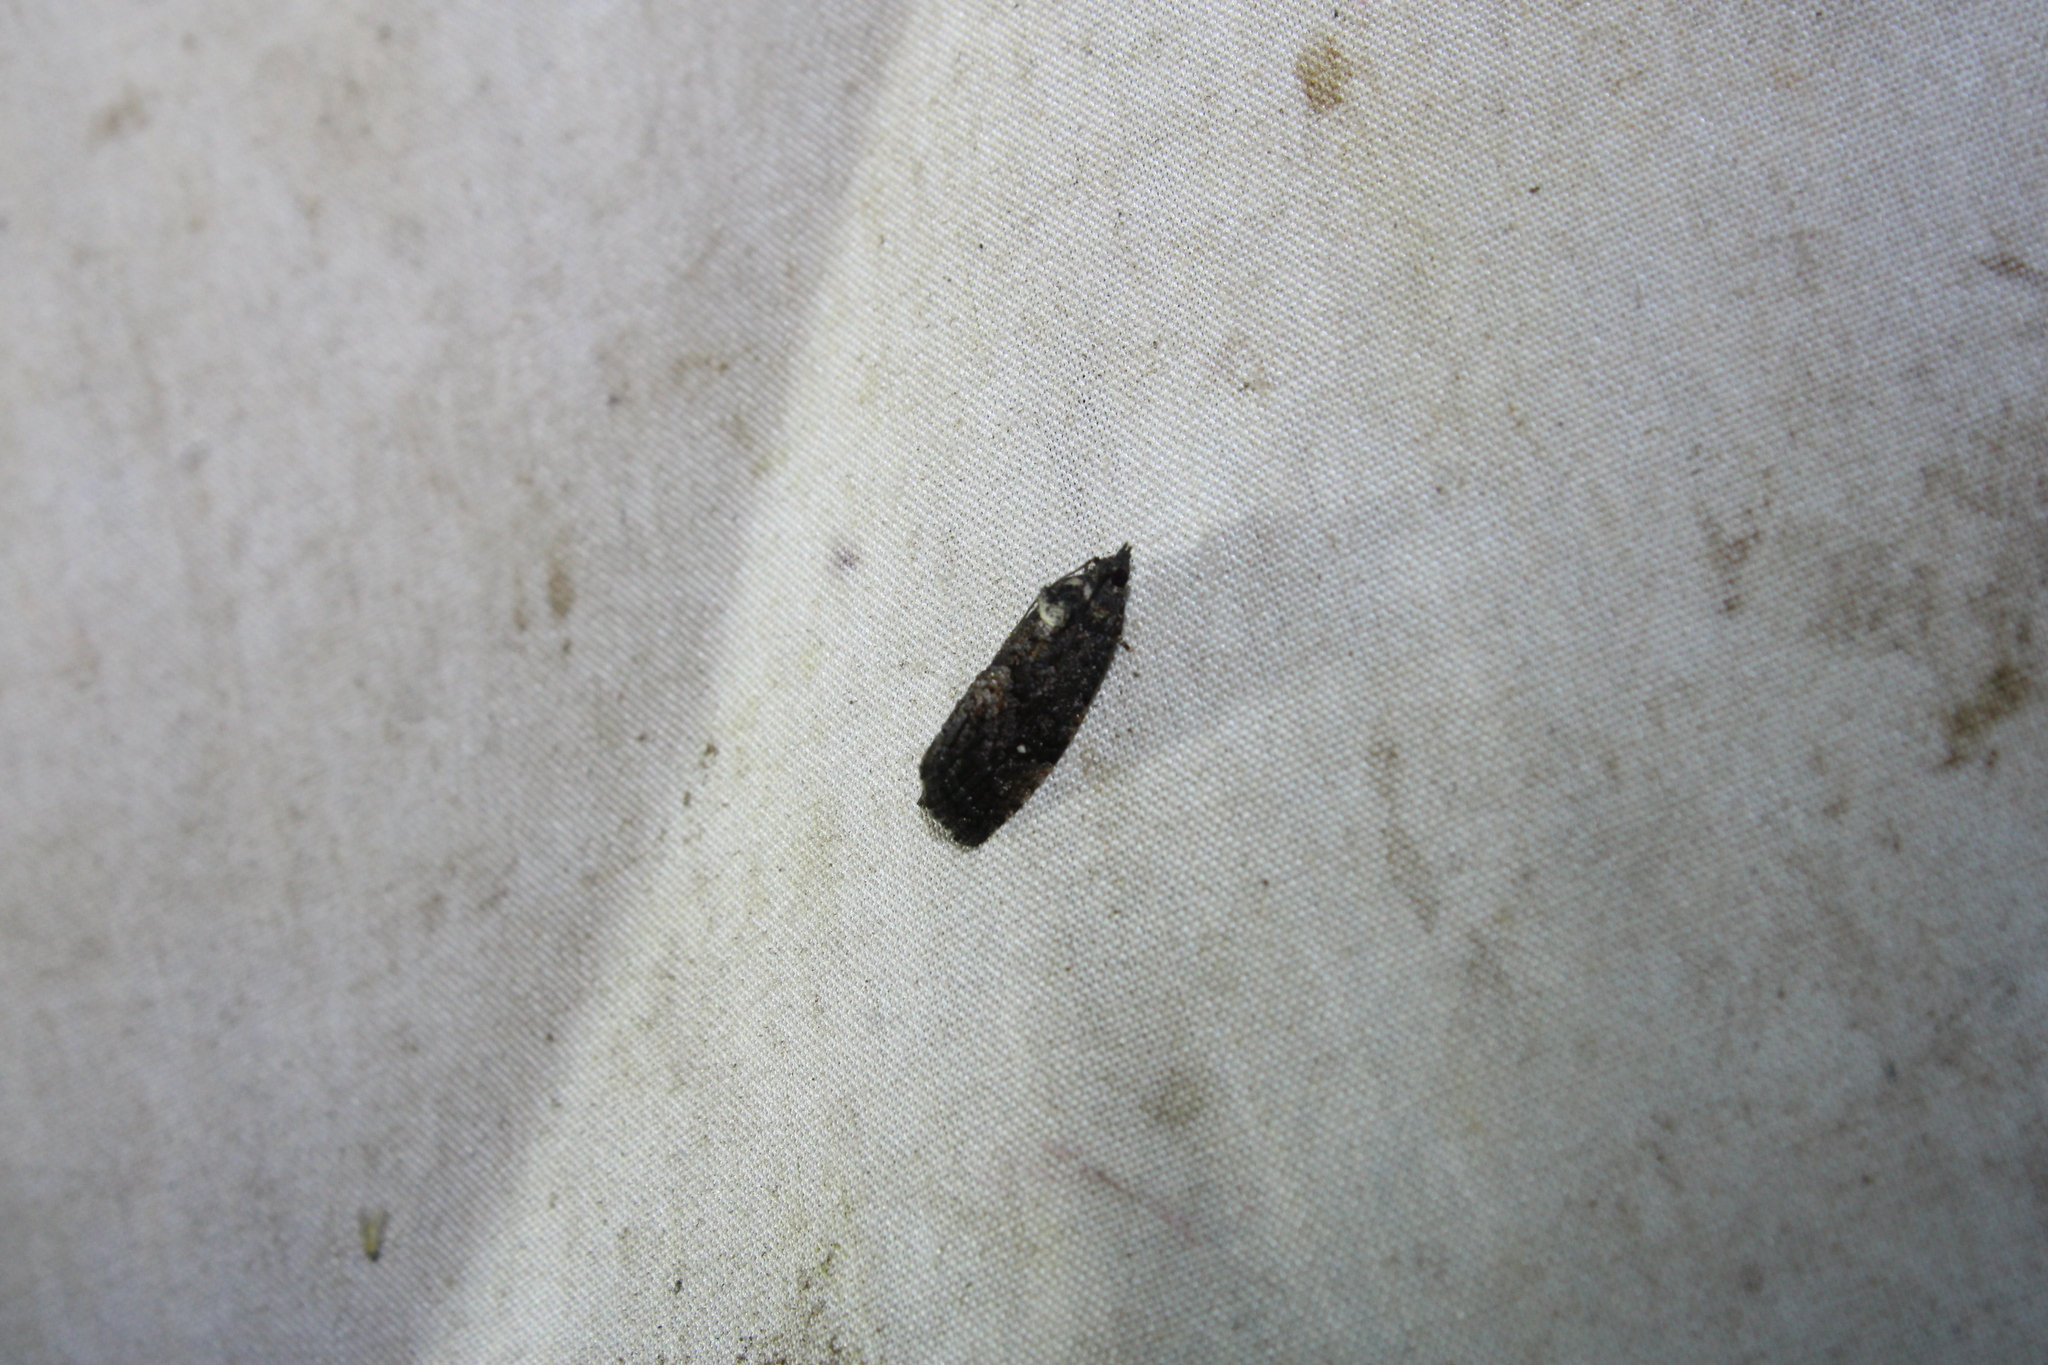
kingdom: Animalia
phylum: Arthropoda
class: Insecta
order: Lepidoptera
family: Tortricidae
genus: Gymnandrosoma
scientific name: Gymnandrosoma punctidiscanum
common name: Dotted ecdytolopha moth
